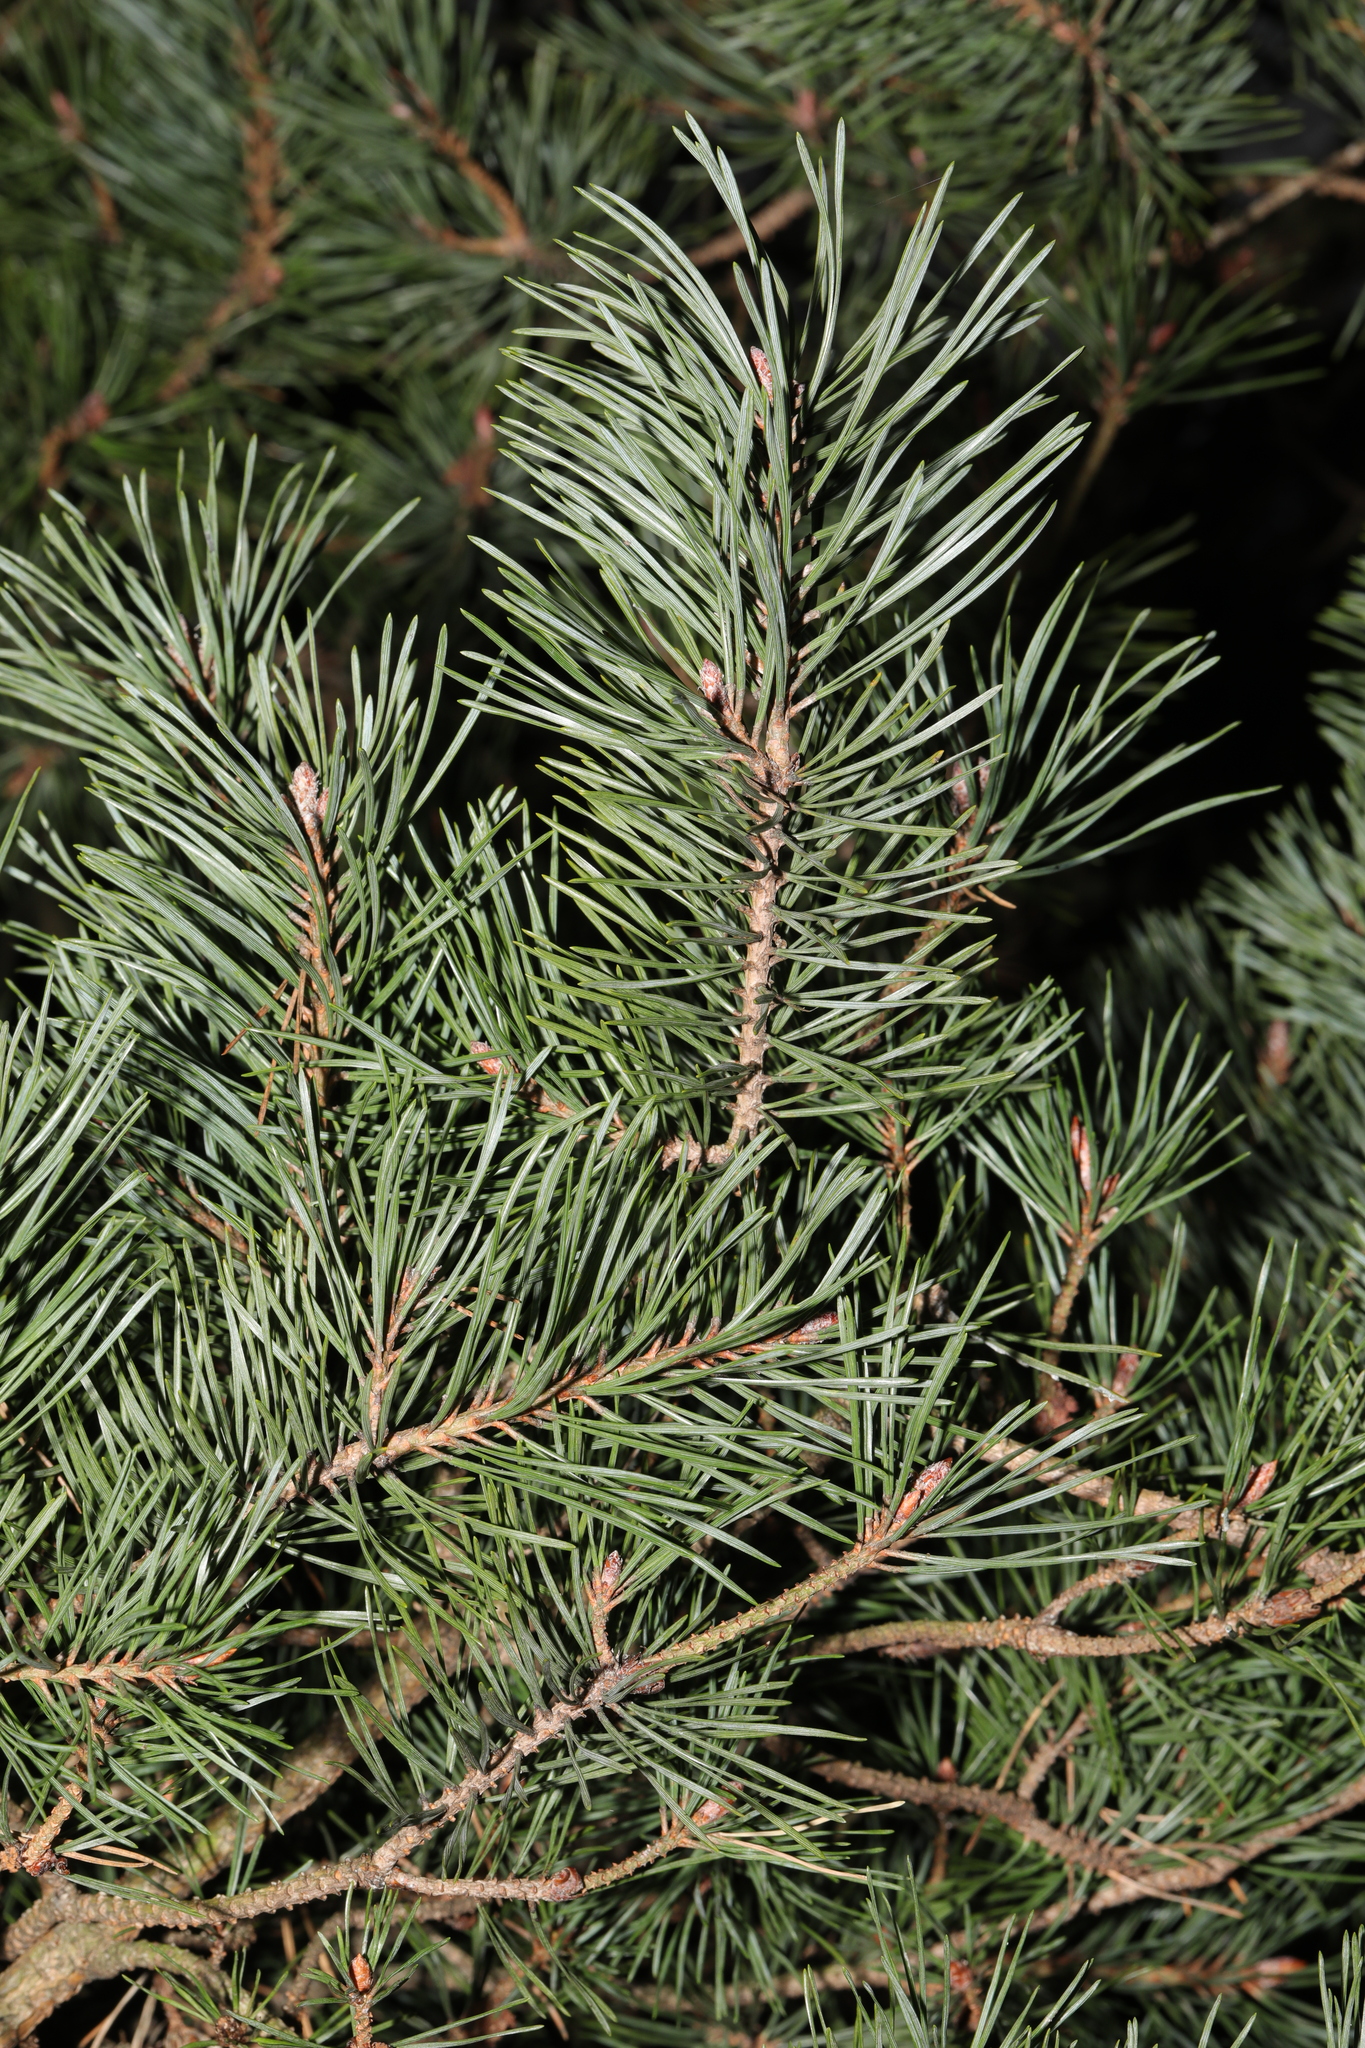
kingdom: Plantae
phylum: Tracheophyta
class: Pinopsida
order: Pinales
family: Pinaceae
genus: Pinus
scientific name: Pinus sylvestris
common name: Scots pine
